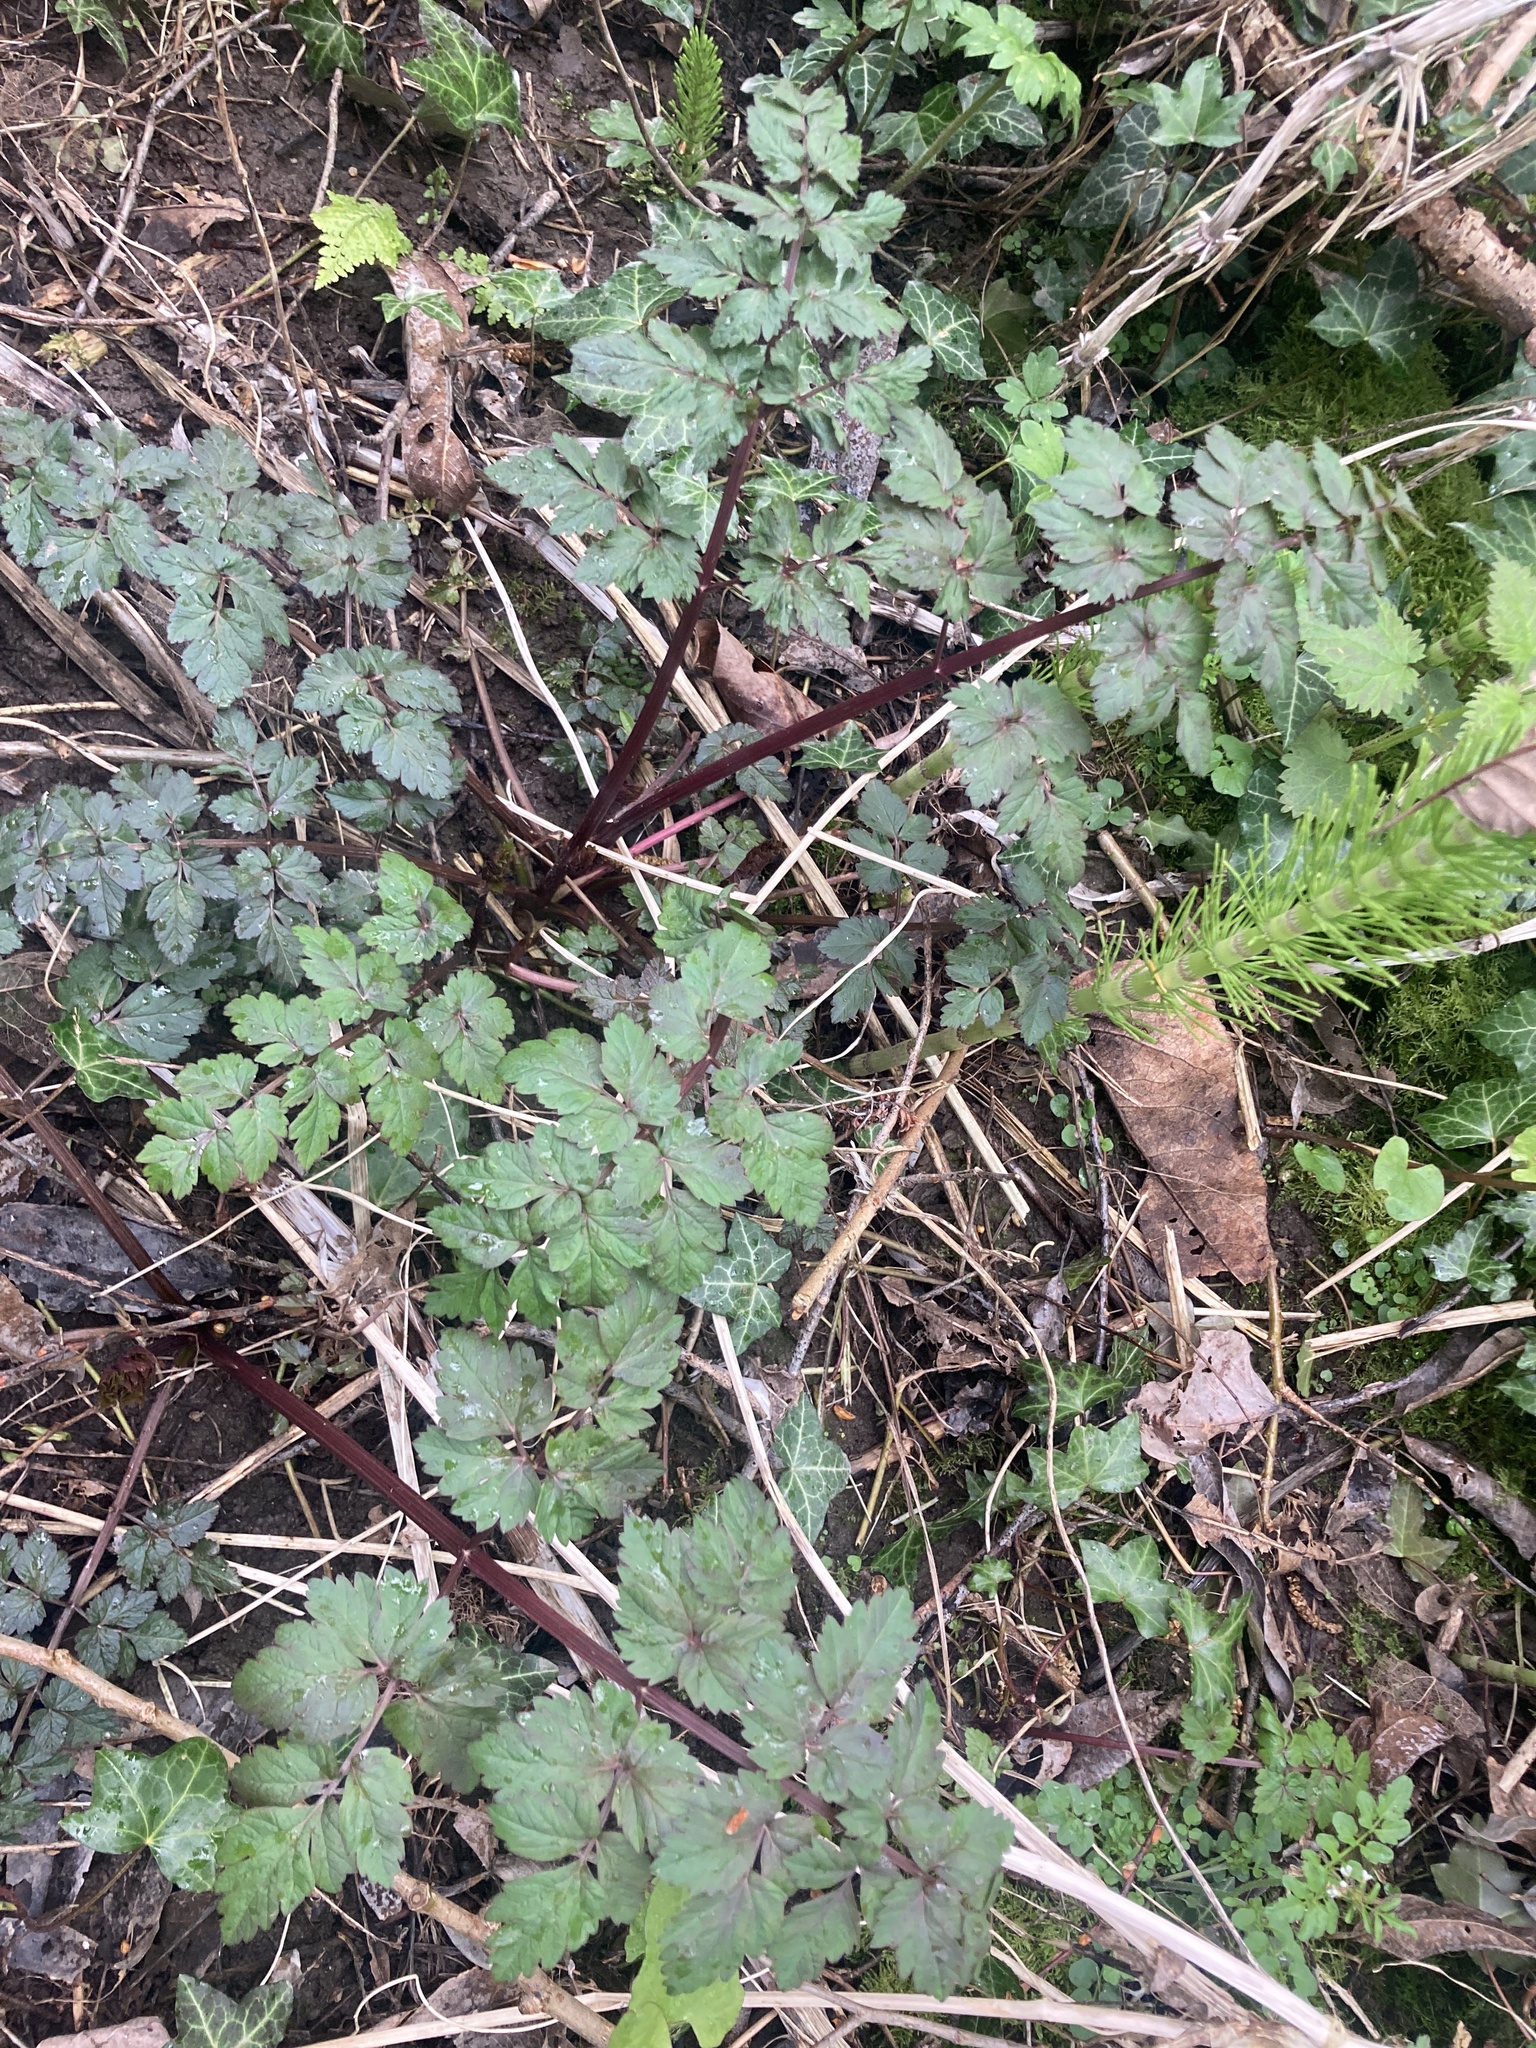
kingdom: Plantae
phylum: Tracheophyta
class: Magnoliopsida
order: Apiales
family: Apiaceae
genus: Oenanthe
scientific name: Oenanthe sarmentosa
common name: American water-parsley
